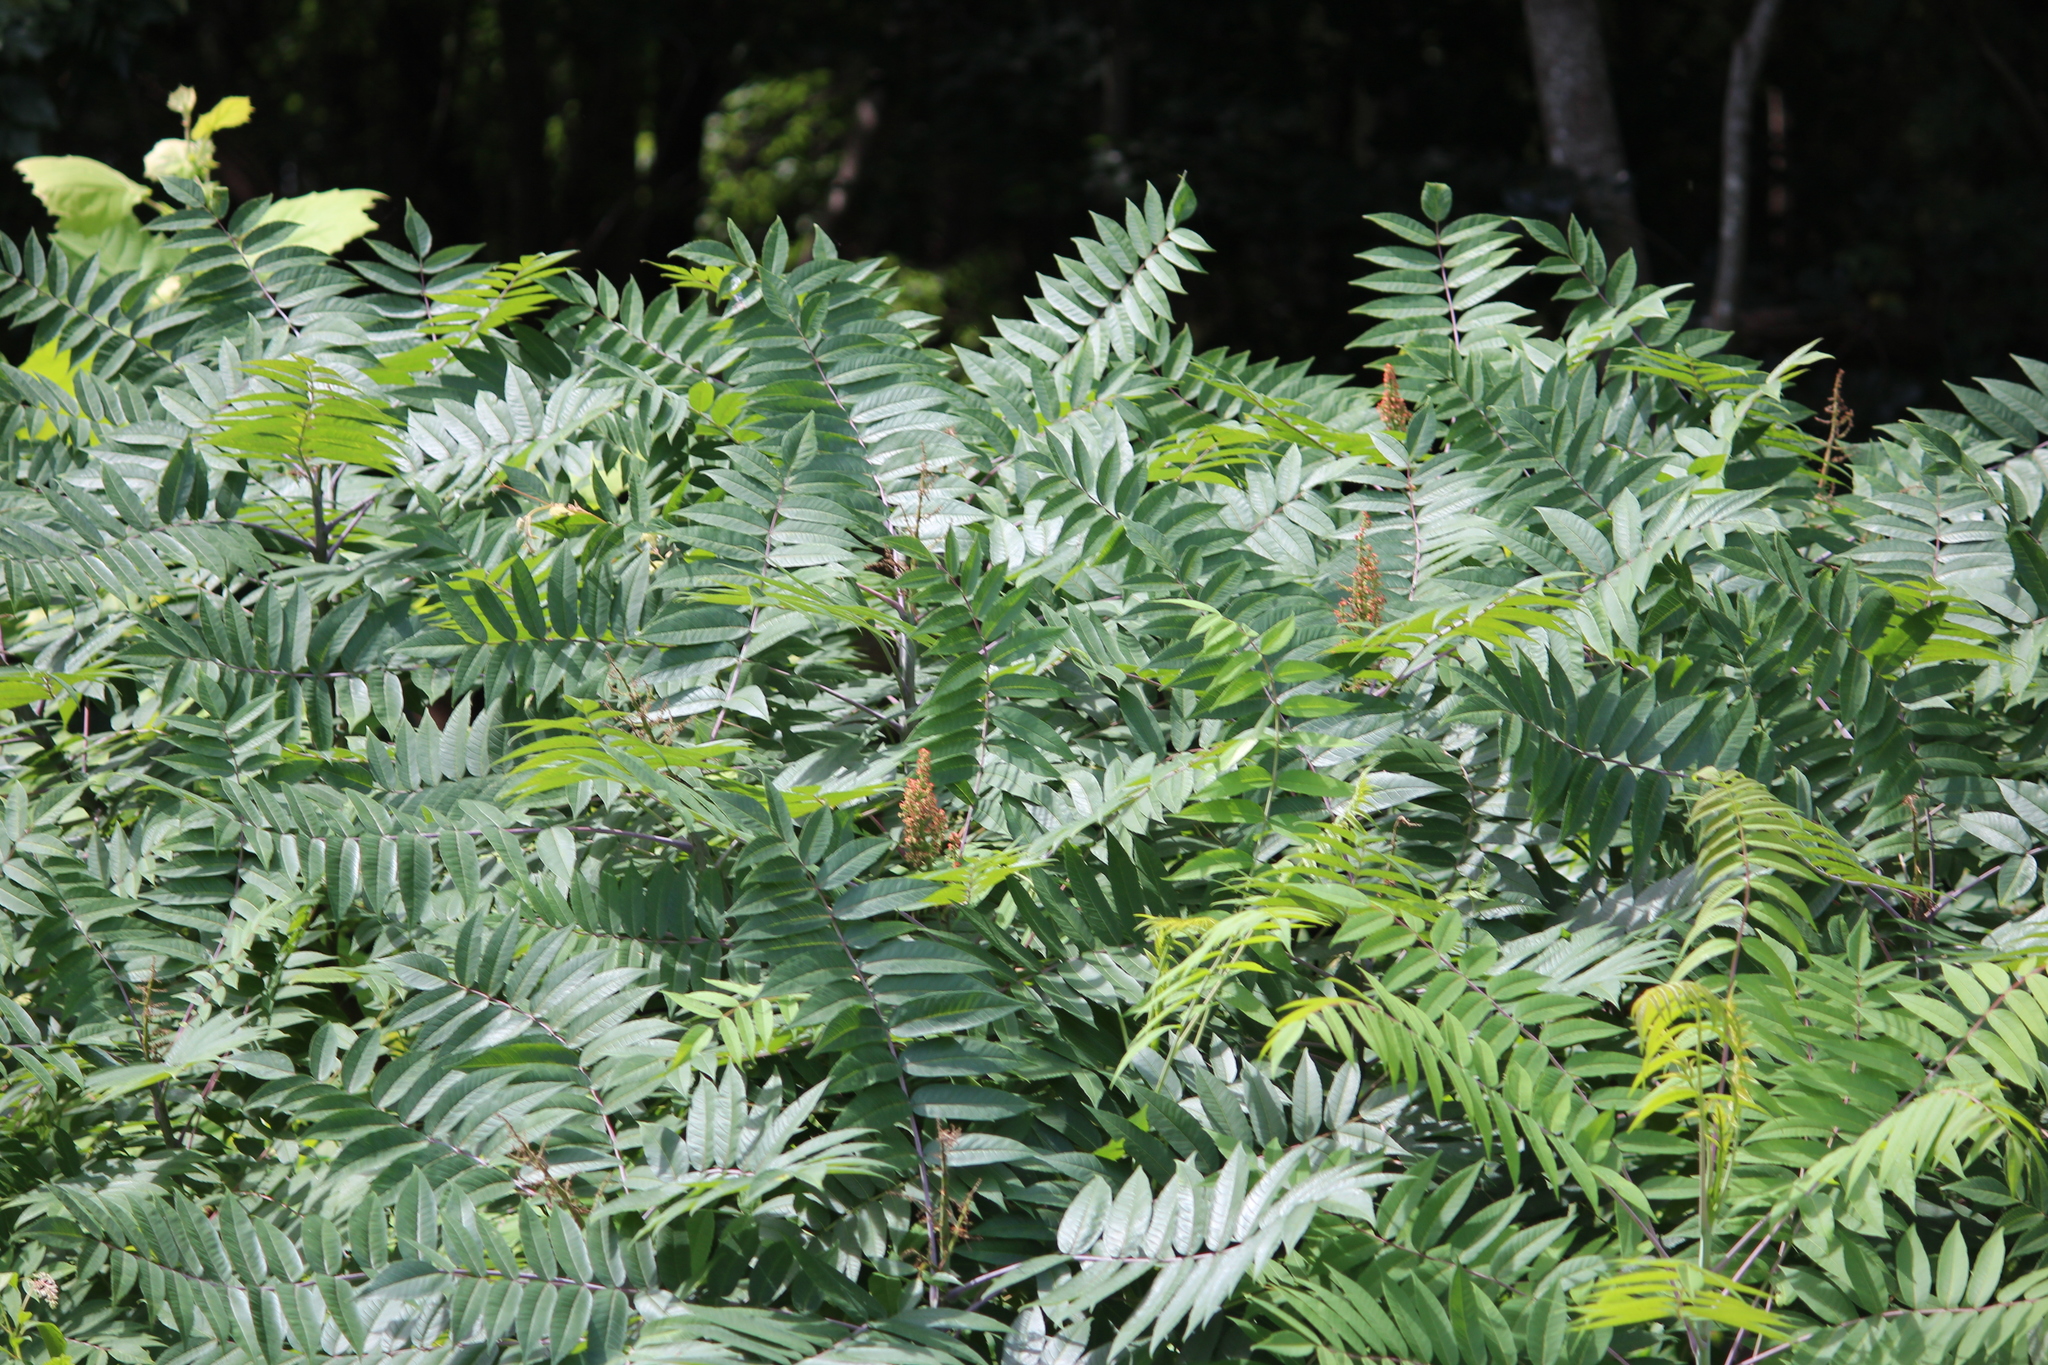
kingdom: Plantae
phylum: Tracheophyta
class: Magnoliopsida
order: Sapindales
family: Anacardiaceae
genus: Rhus
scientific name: Rhus glabra
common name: Scarlet sumac
